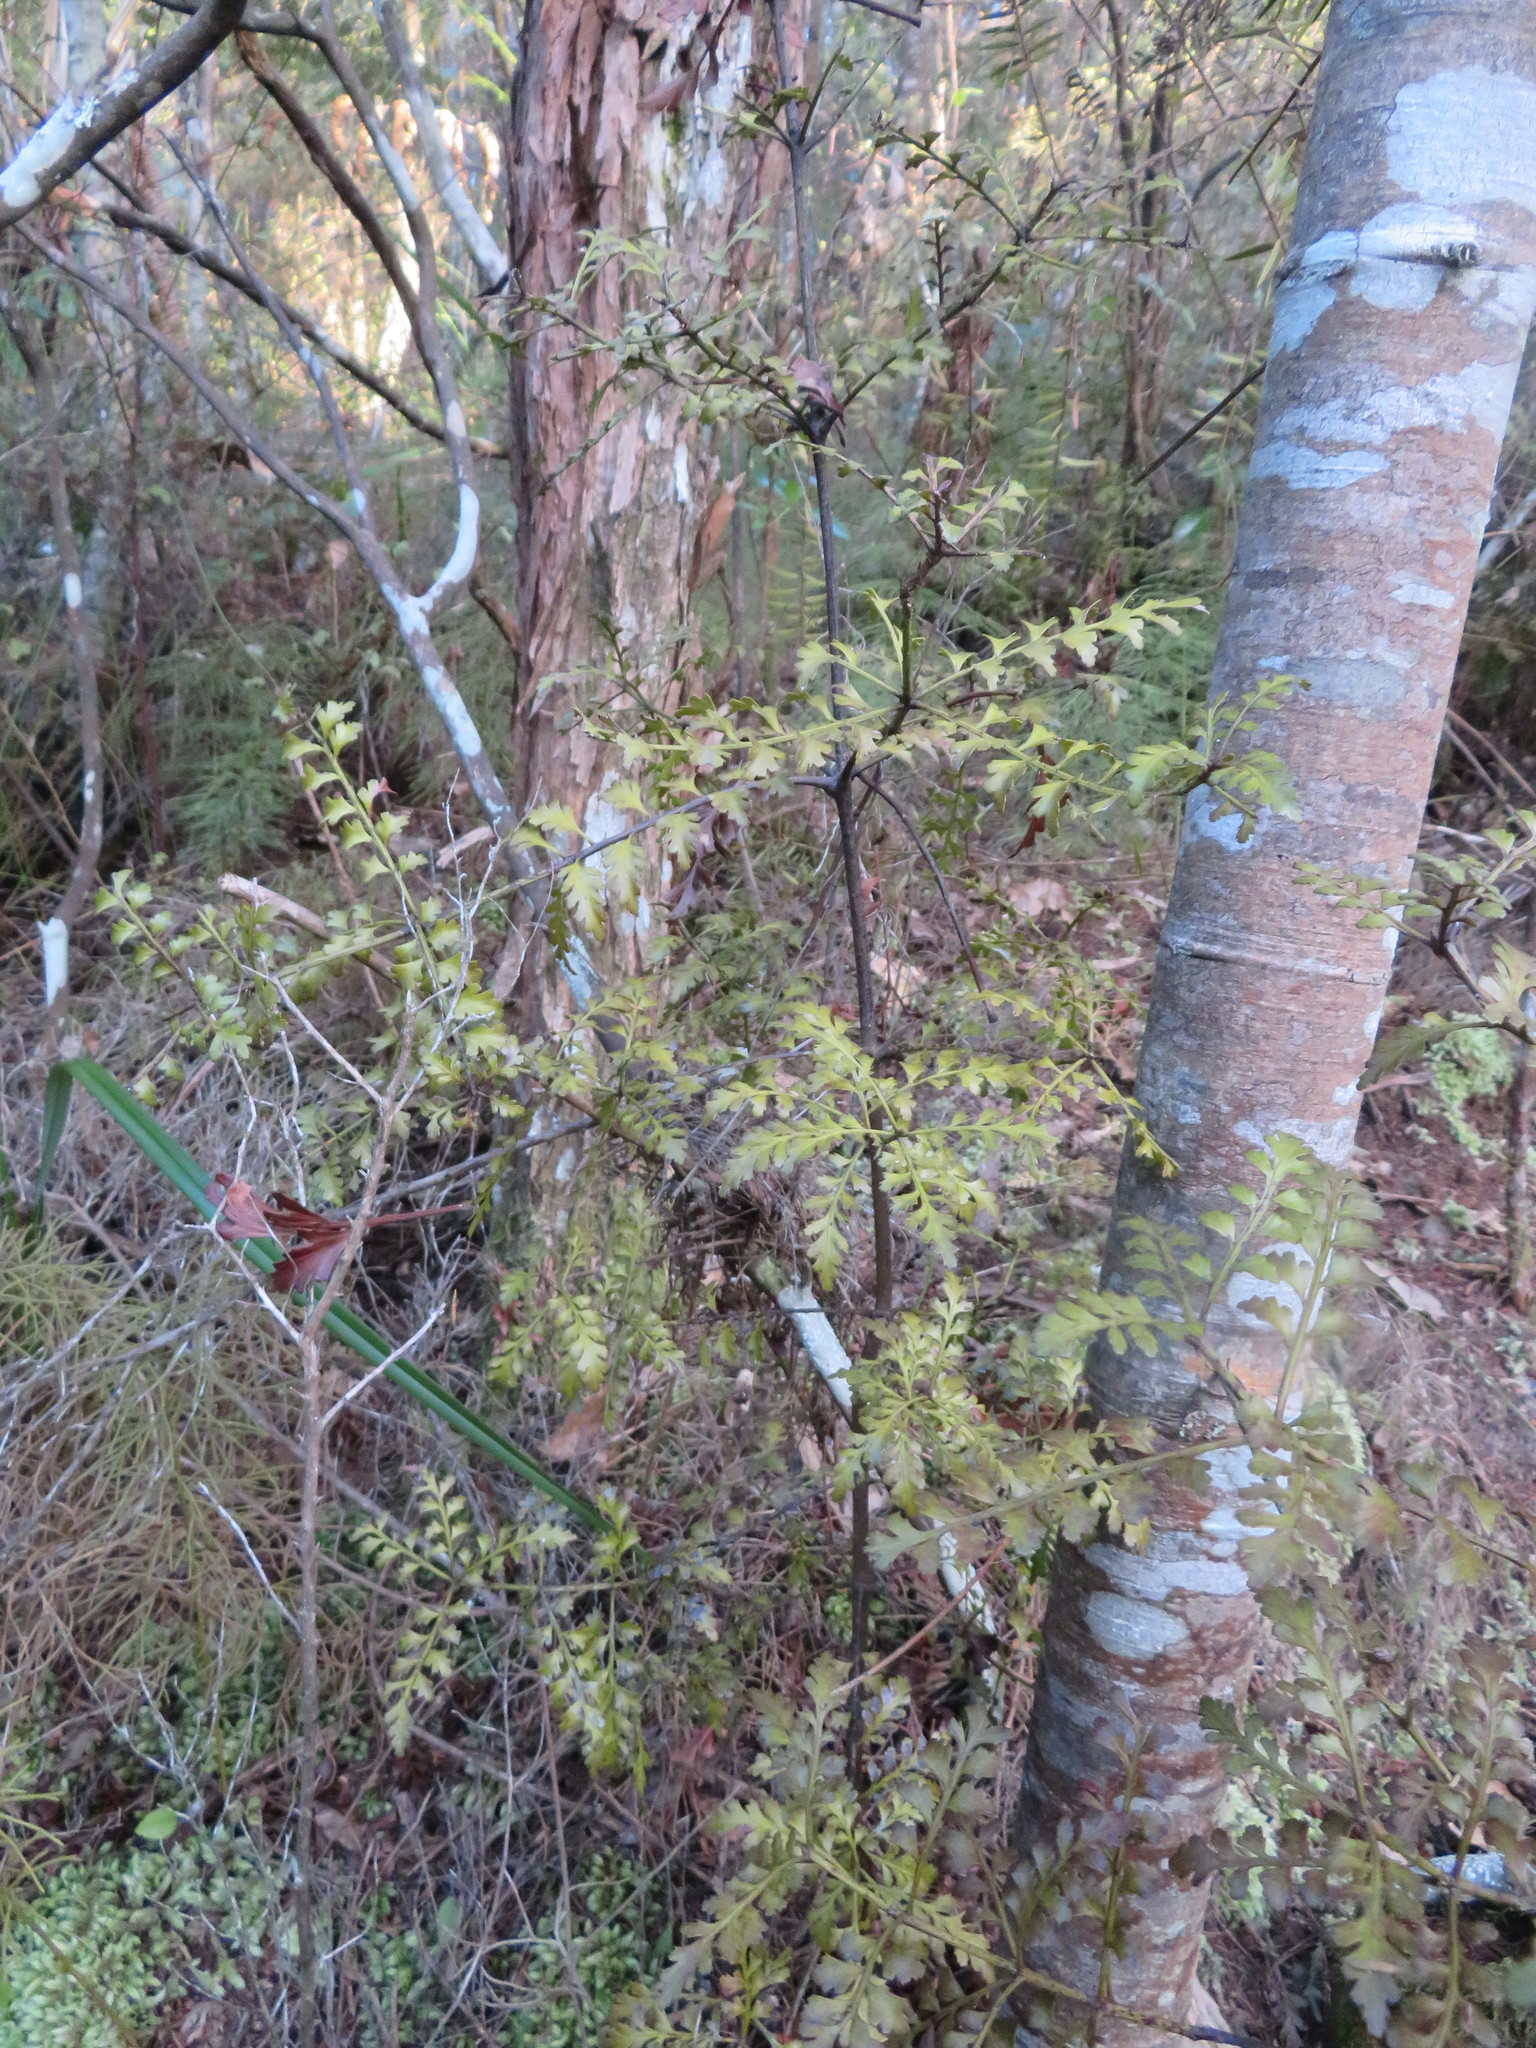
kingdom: Plantae
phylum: Tracheophyta
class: Pinopsida
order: Pinales
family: Phyllocladaceae
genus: Phyllocladus
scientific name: Phyllocladus trichomanoides
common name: Celery pine
